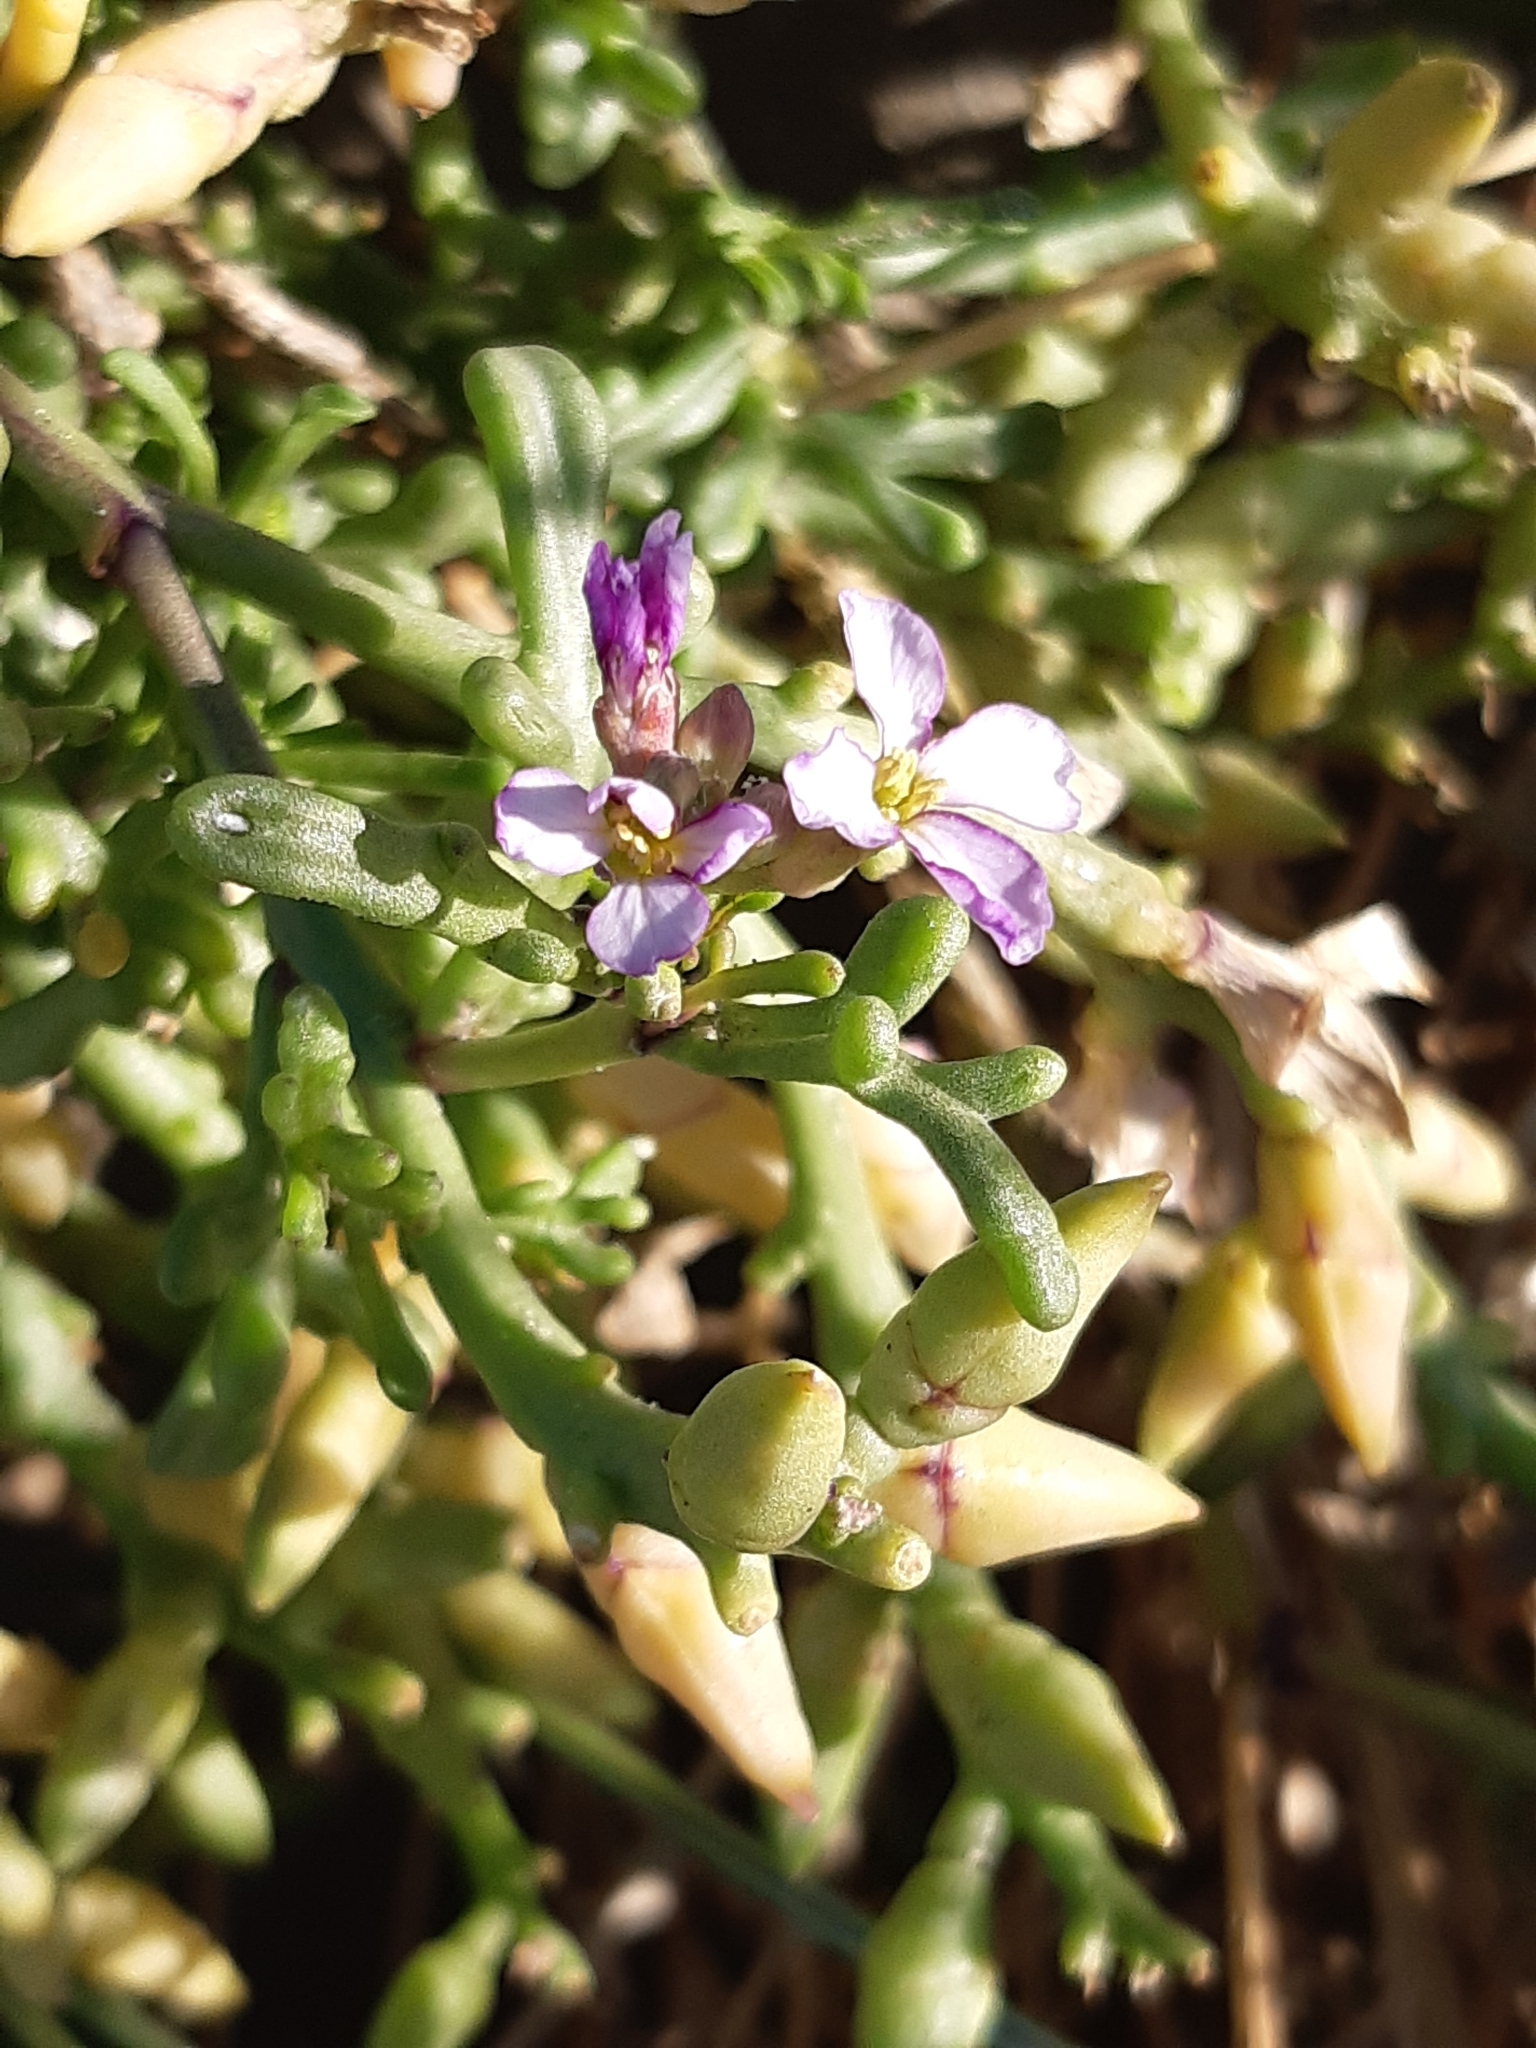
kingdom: Plantae
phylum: Tracheophyta
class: Magnoliopsida
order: Brassicales
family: Brassicaceae
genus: Cakile
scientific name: Cakile maritima
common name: Sea rocket
